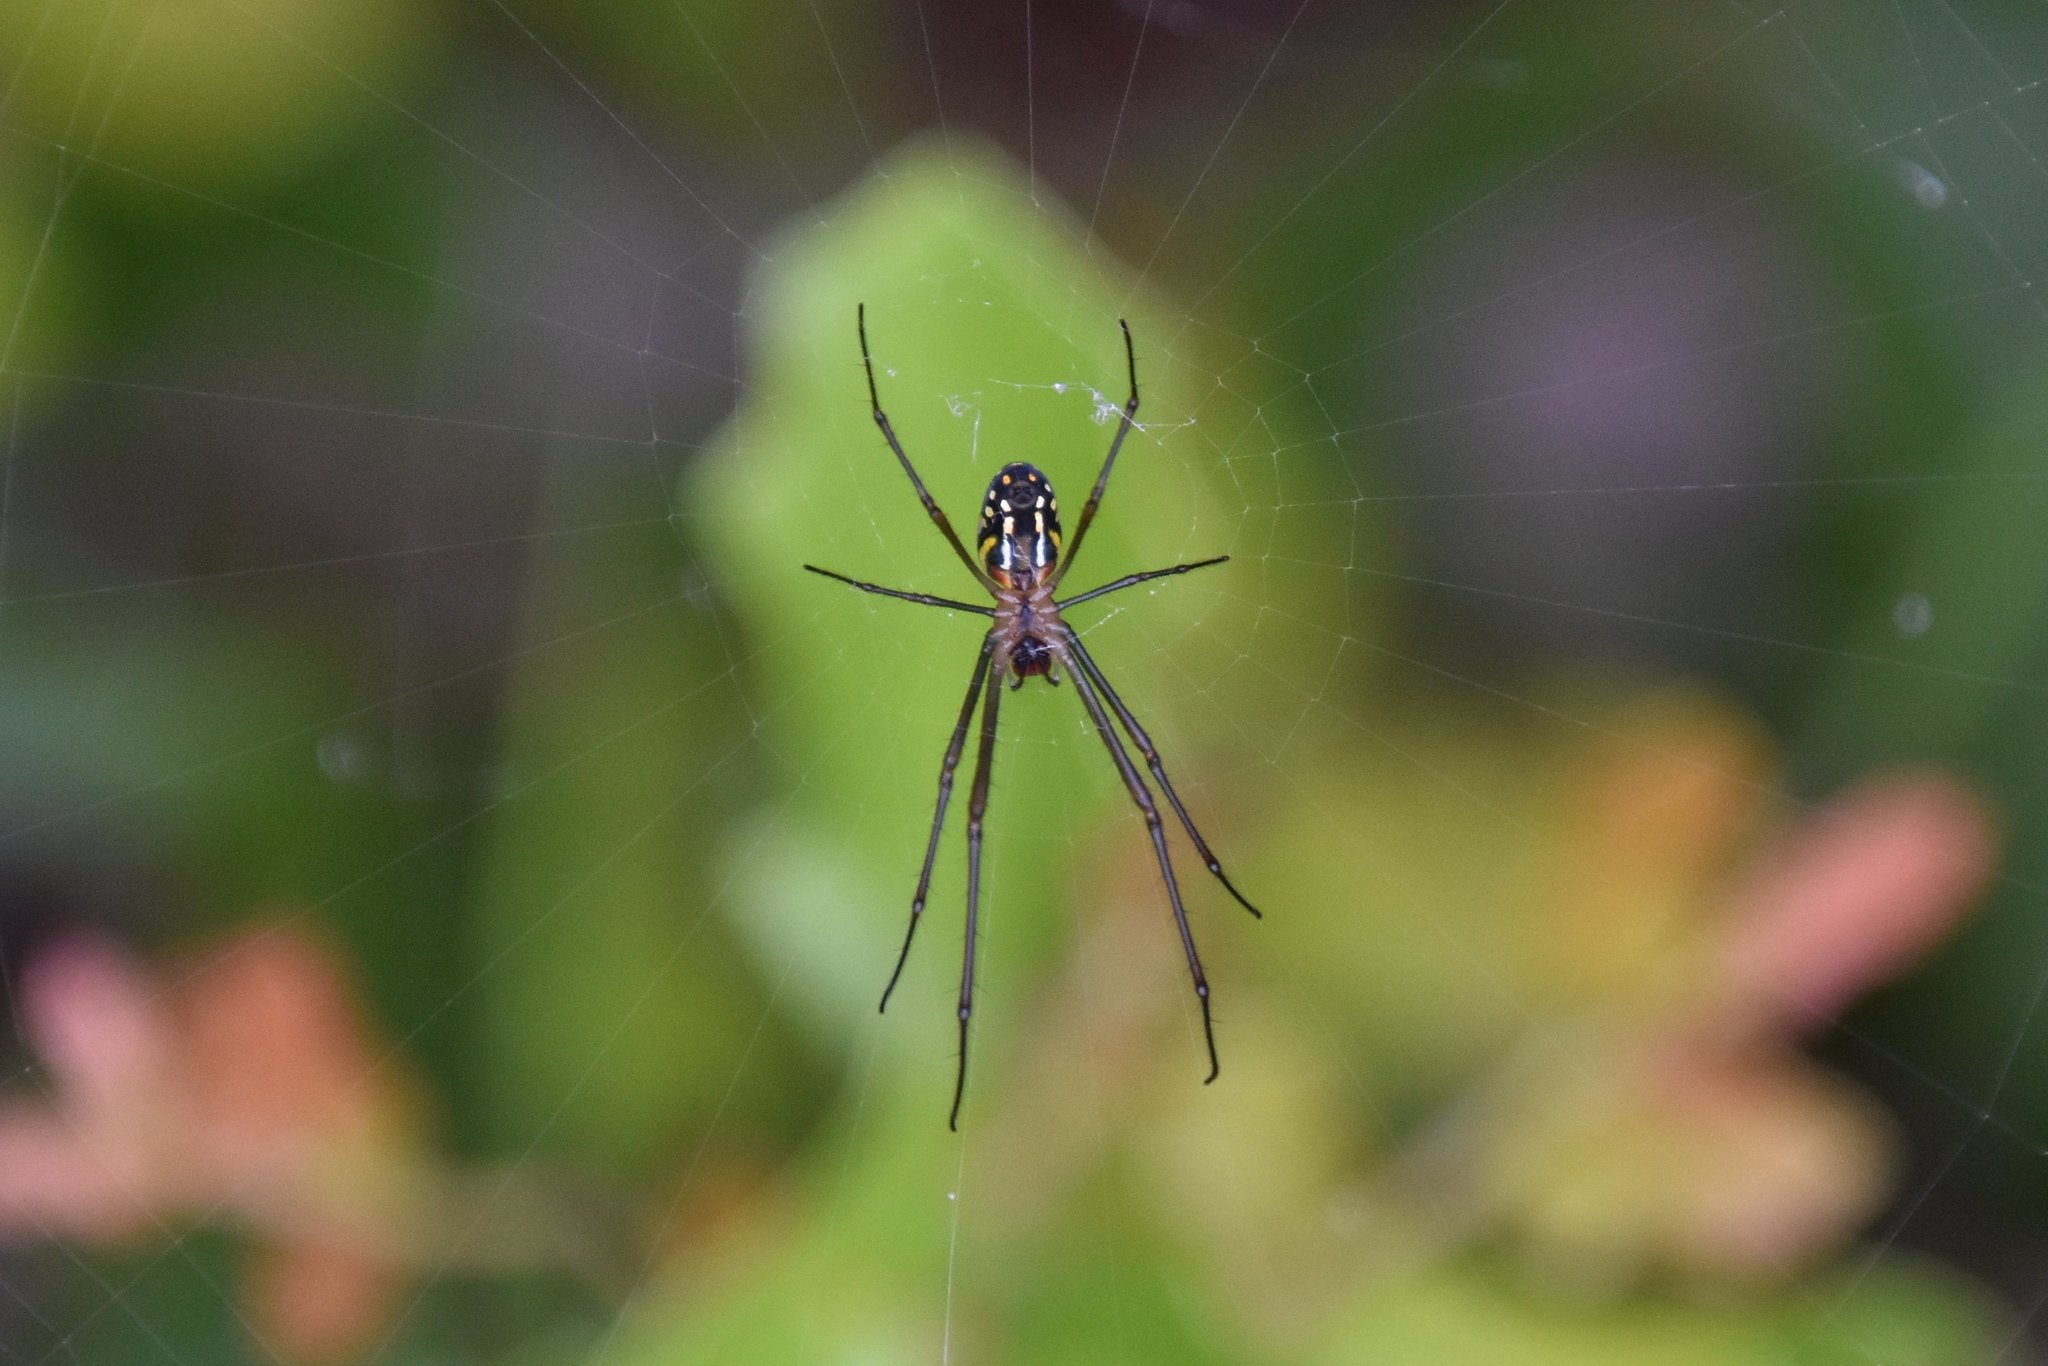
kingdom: Animalia
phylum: Arthropoda
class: Arachnida
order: Araneae
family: Tetragnathidae
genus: Leucauge
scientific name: Leucauge argyra
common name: Longjawed orb weavers
